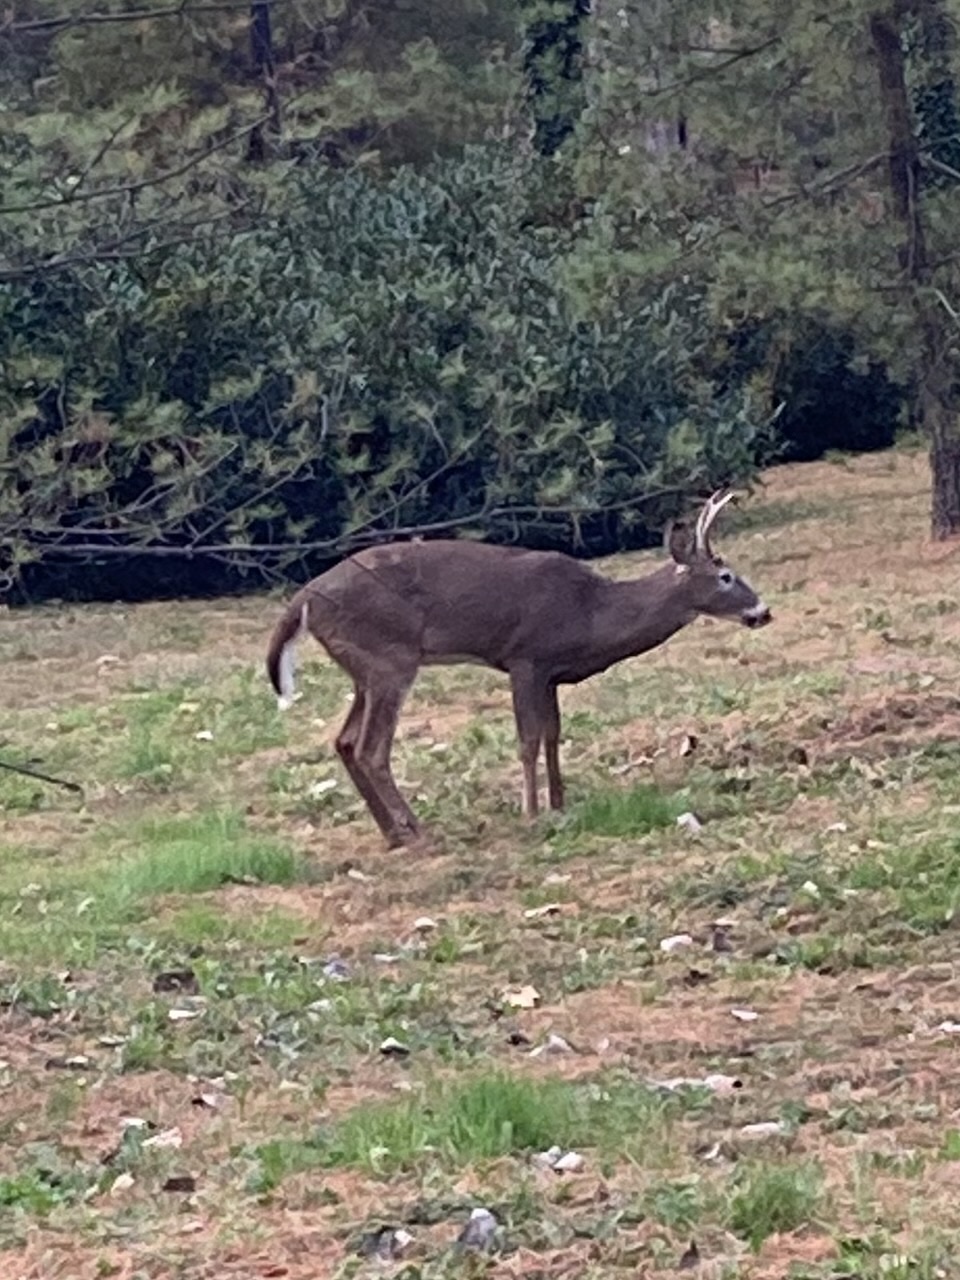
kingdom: Animalia
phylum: Chordata
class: Mammalia
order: Artiodactyla
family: Cervidae
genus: Odocoileus
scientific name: Odocoileus virginianus
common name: White-tailed deer
